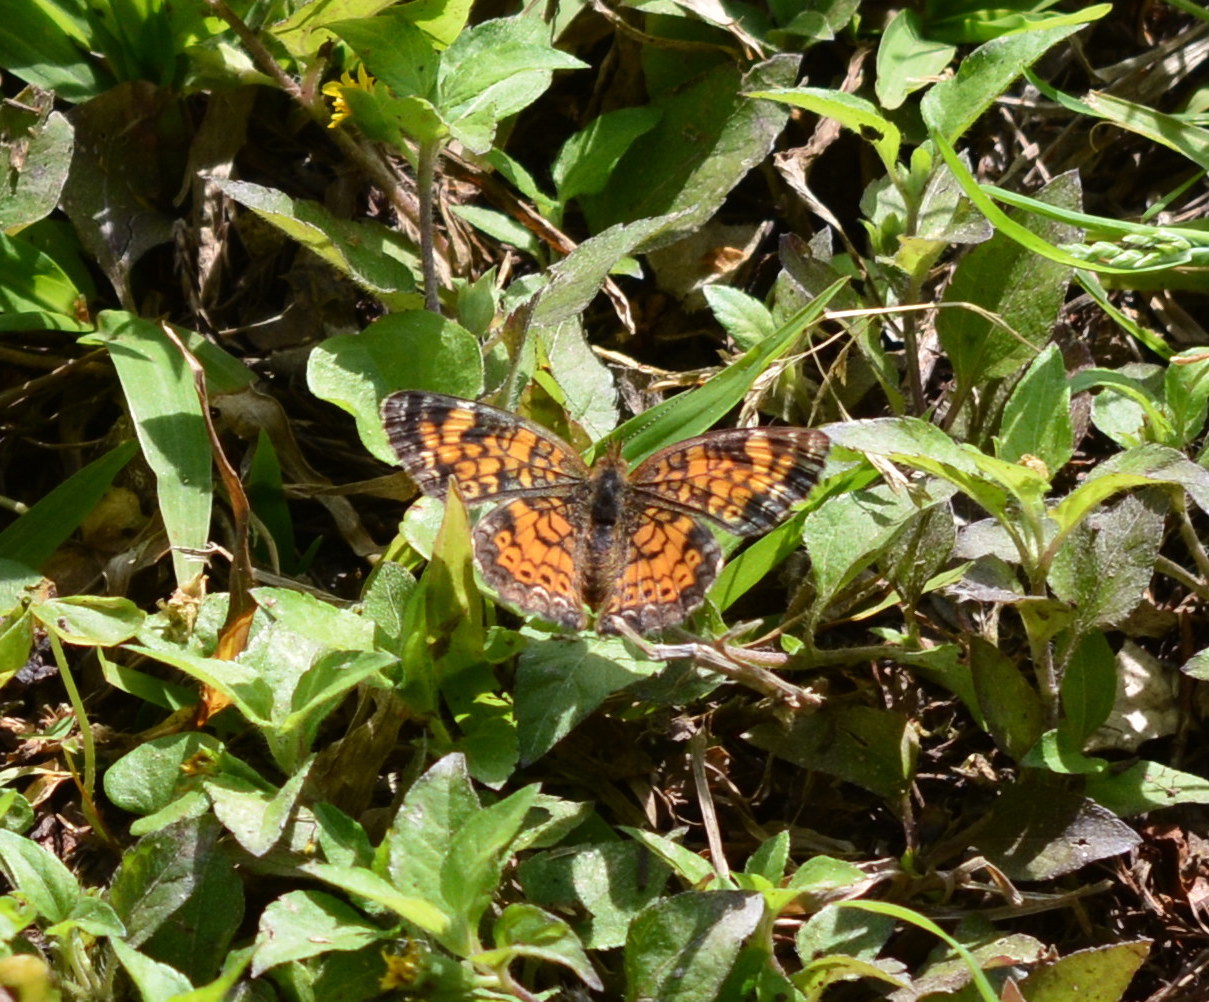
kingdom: Animalia
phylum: Arthropoda
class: Insecta
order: Lepidoptera
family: Nymphalidae
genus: Phyciodes
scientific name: Phyciodes tharos
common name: Pearl crescent
